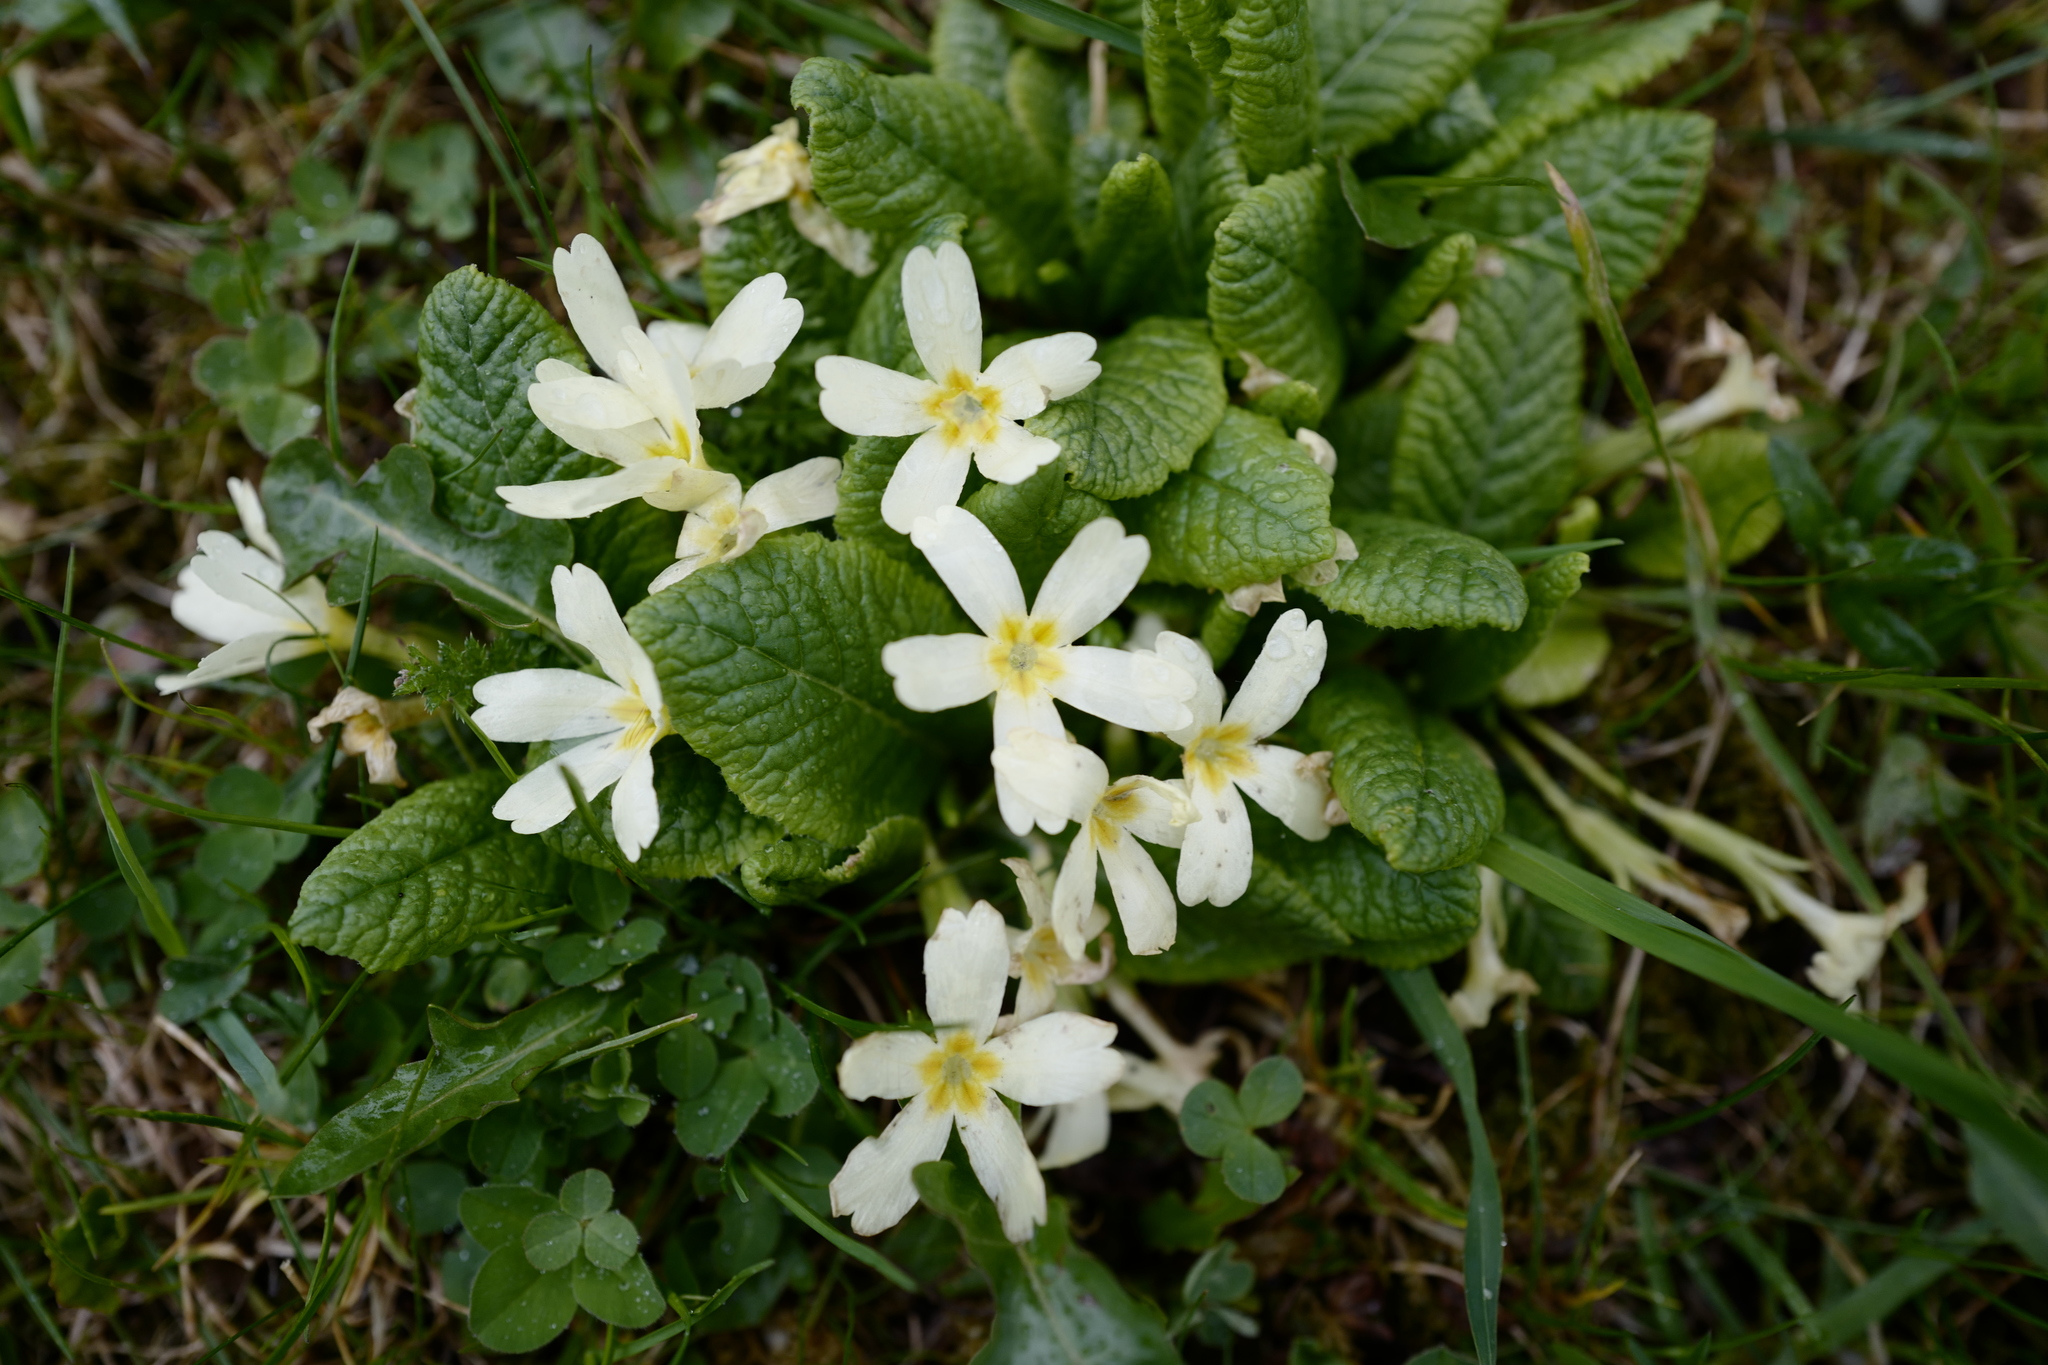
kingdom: Plantae
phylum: Tracheophyta
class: Magnoliopsida
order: Ericales
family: Primulaceae
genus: Primula
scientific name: Primula vulgaris
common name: Primrose
